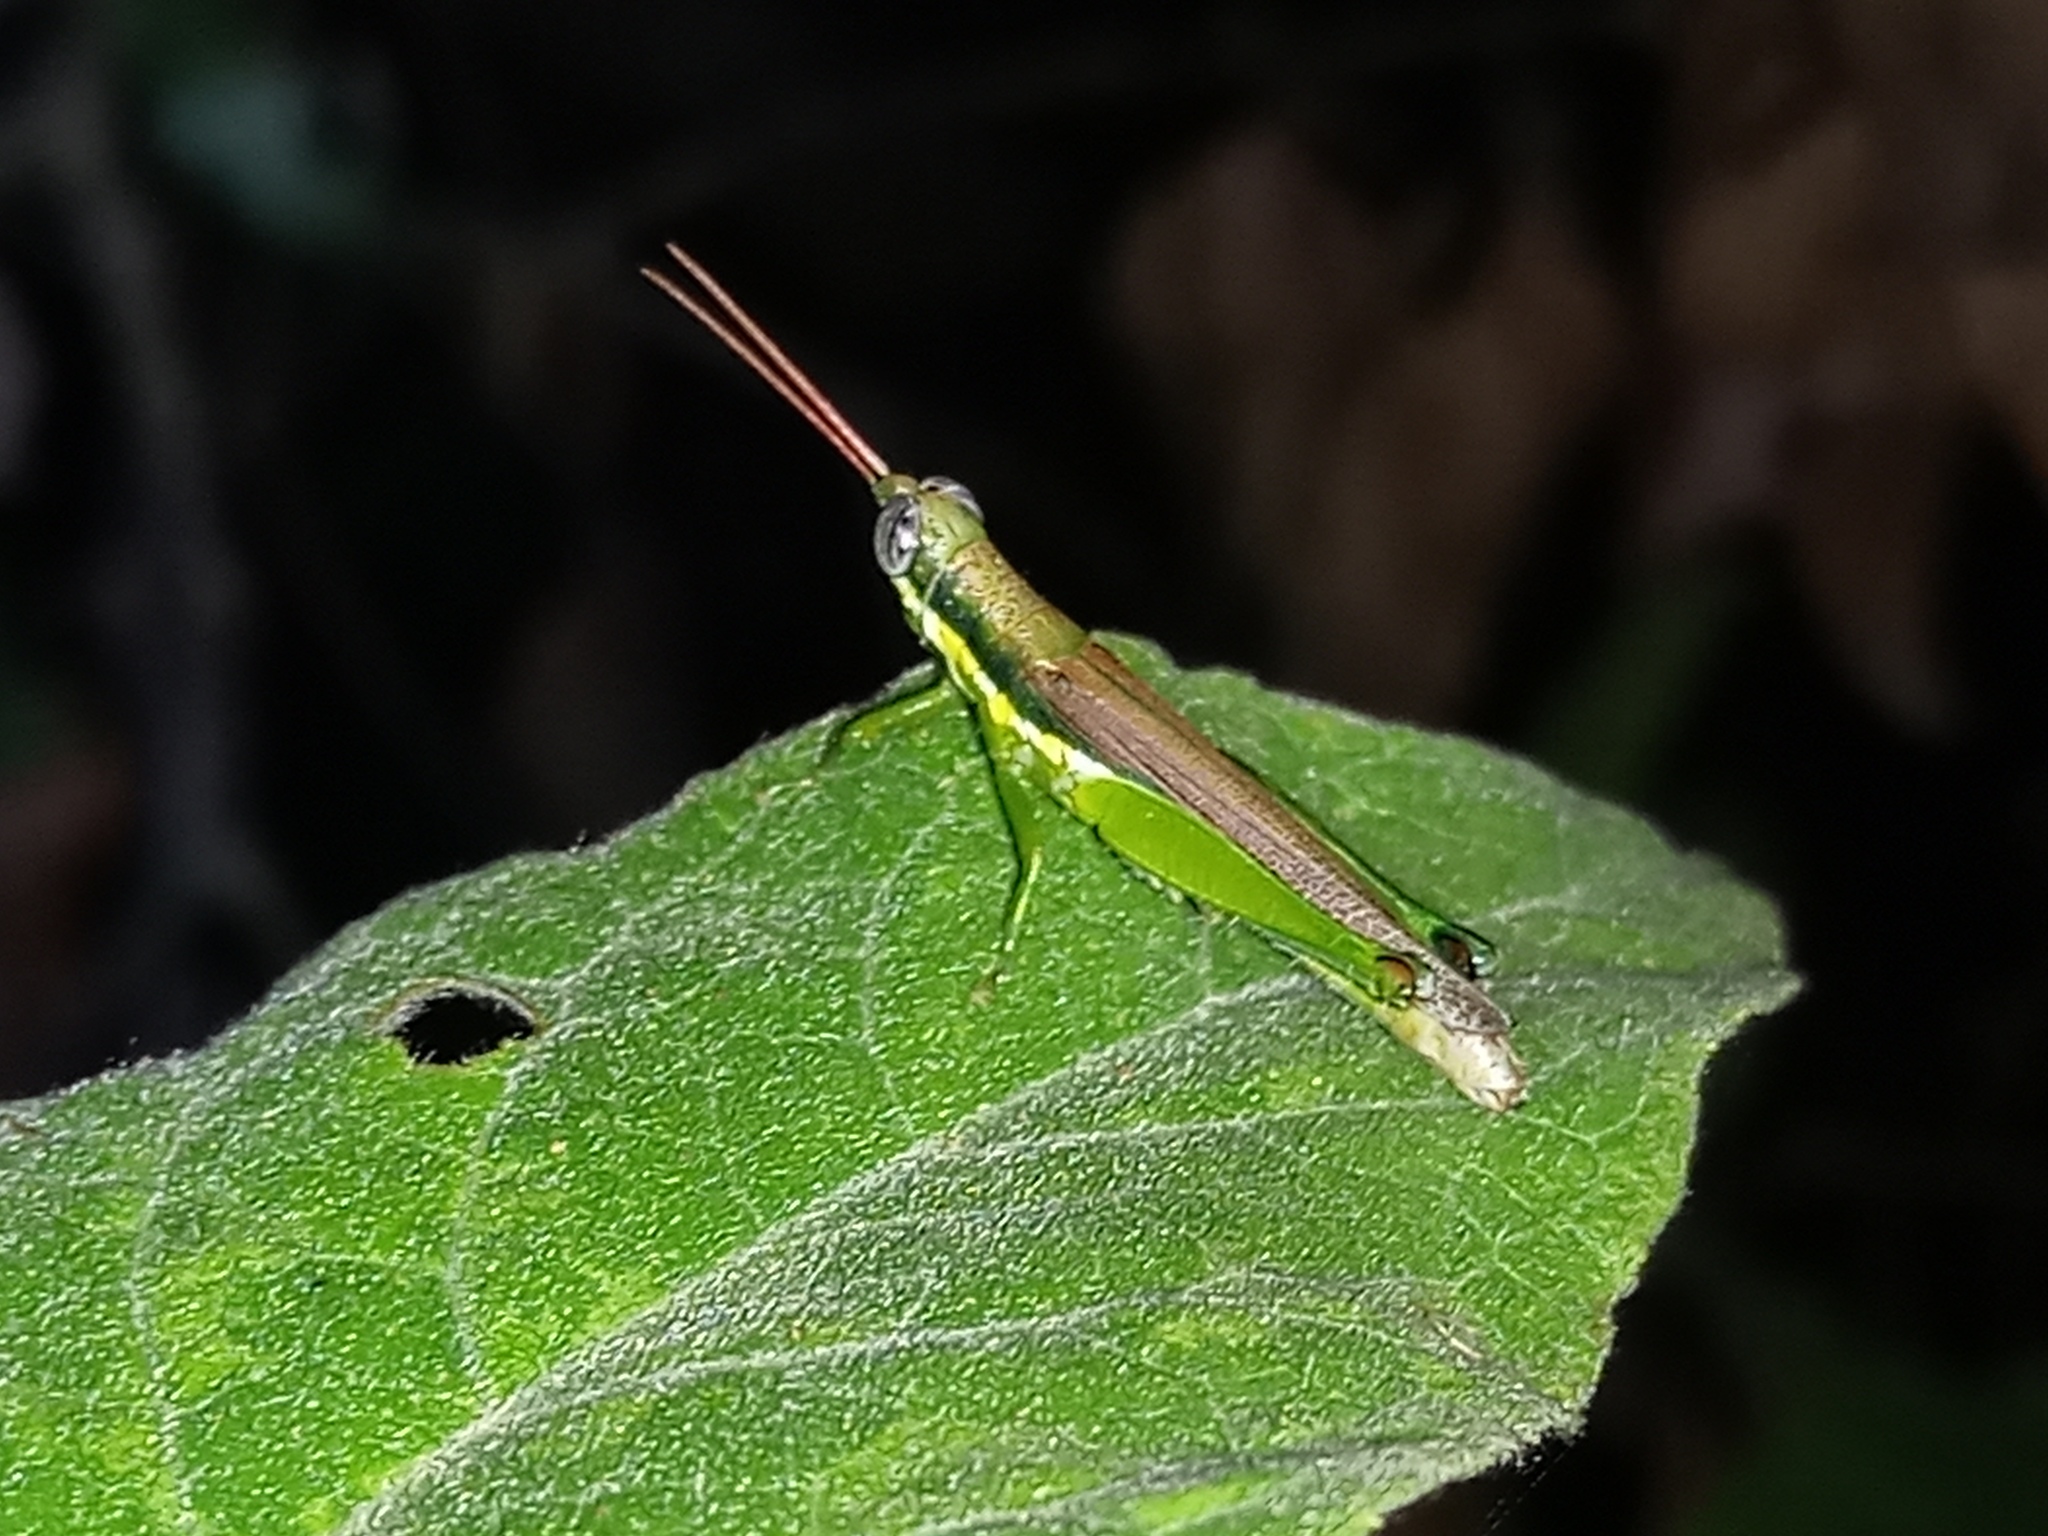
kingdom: Animalia
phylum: Arthropoda
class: Insecta
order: Orthoptera
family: Acrididae
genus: Stenopola
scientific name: Stenopola puncticeps
